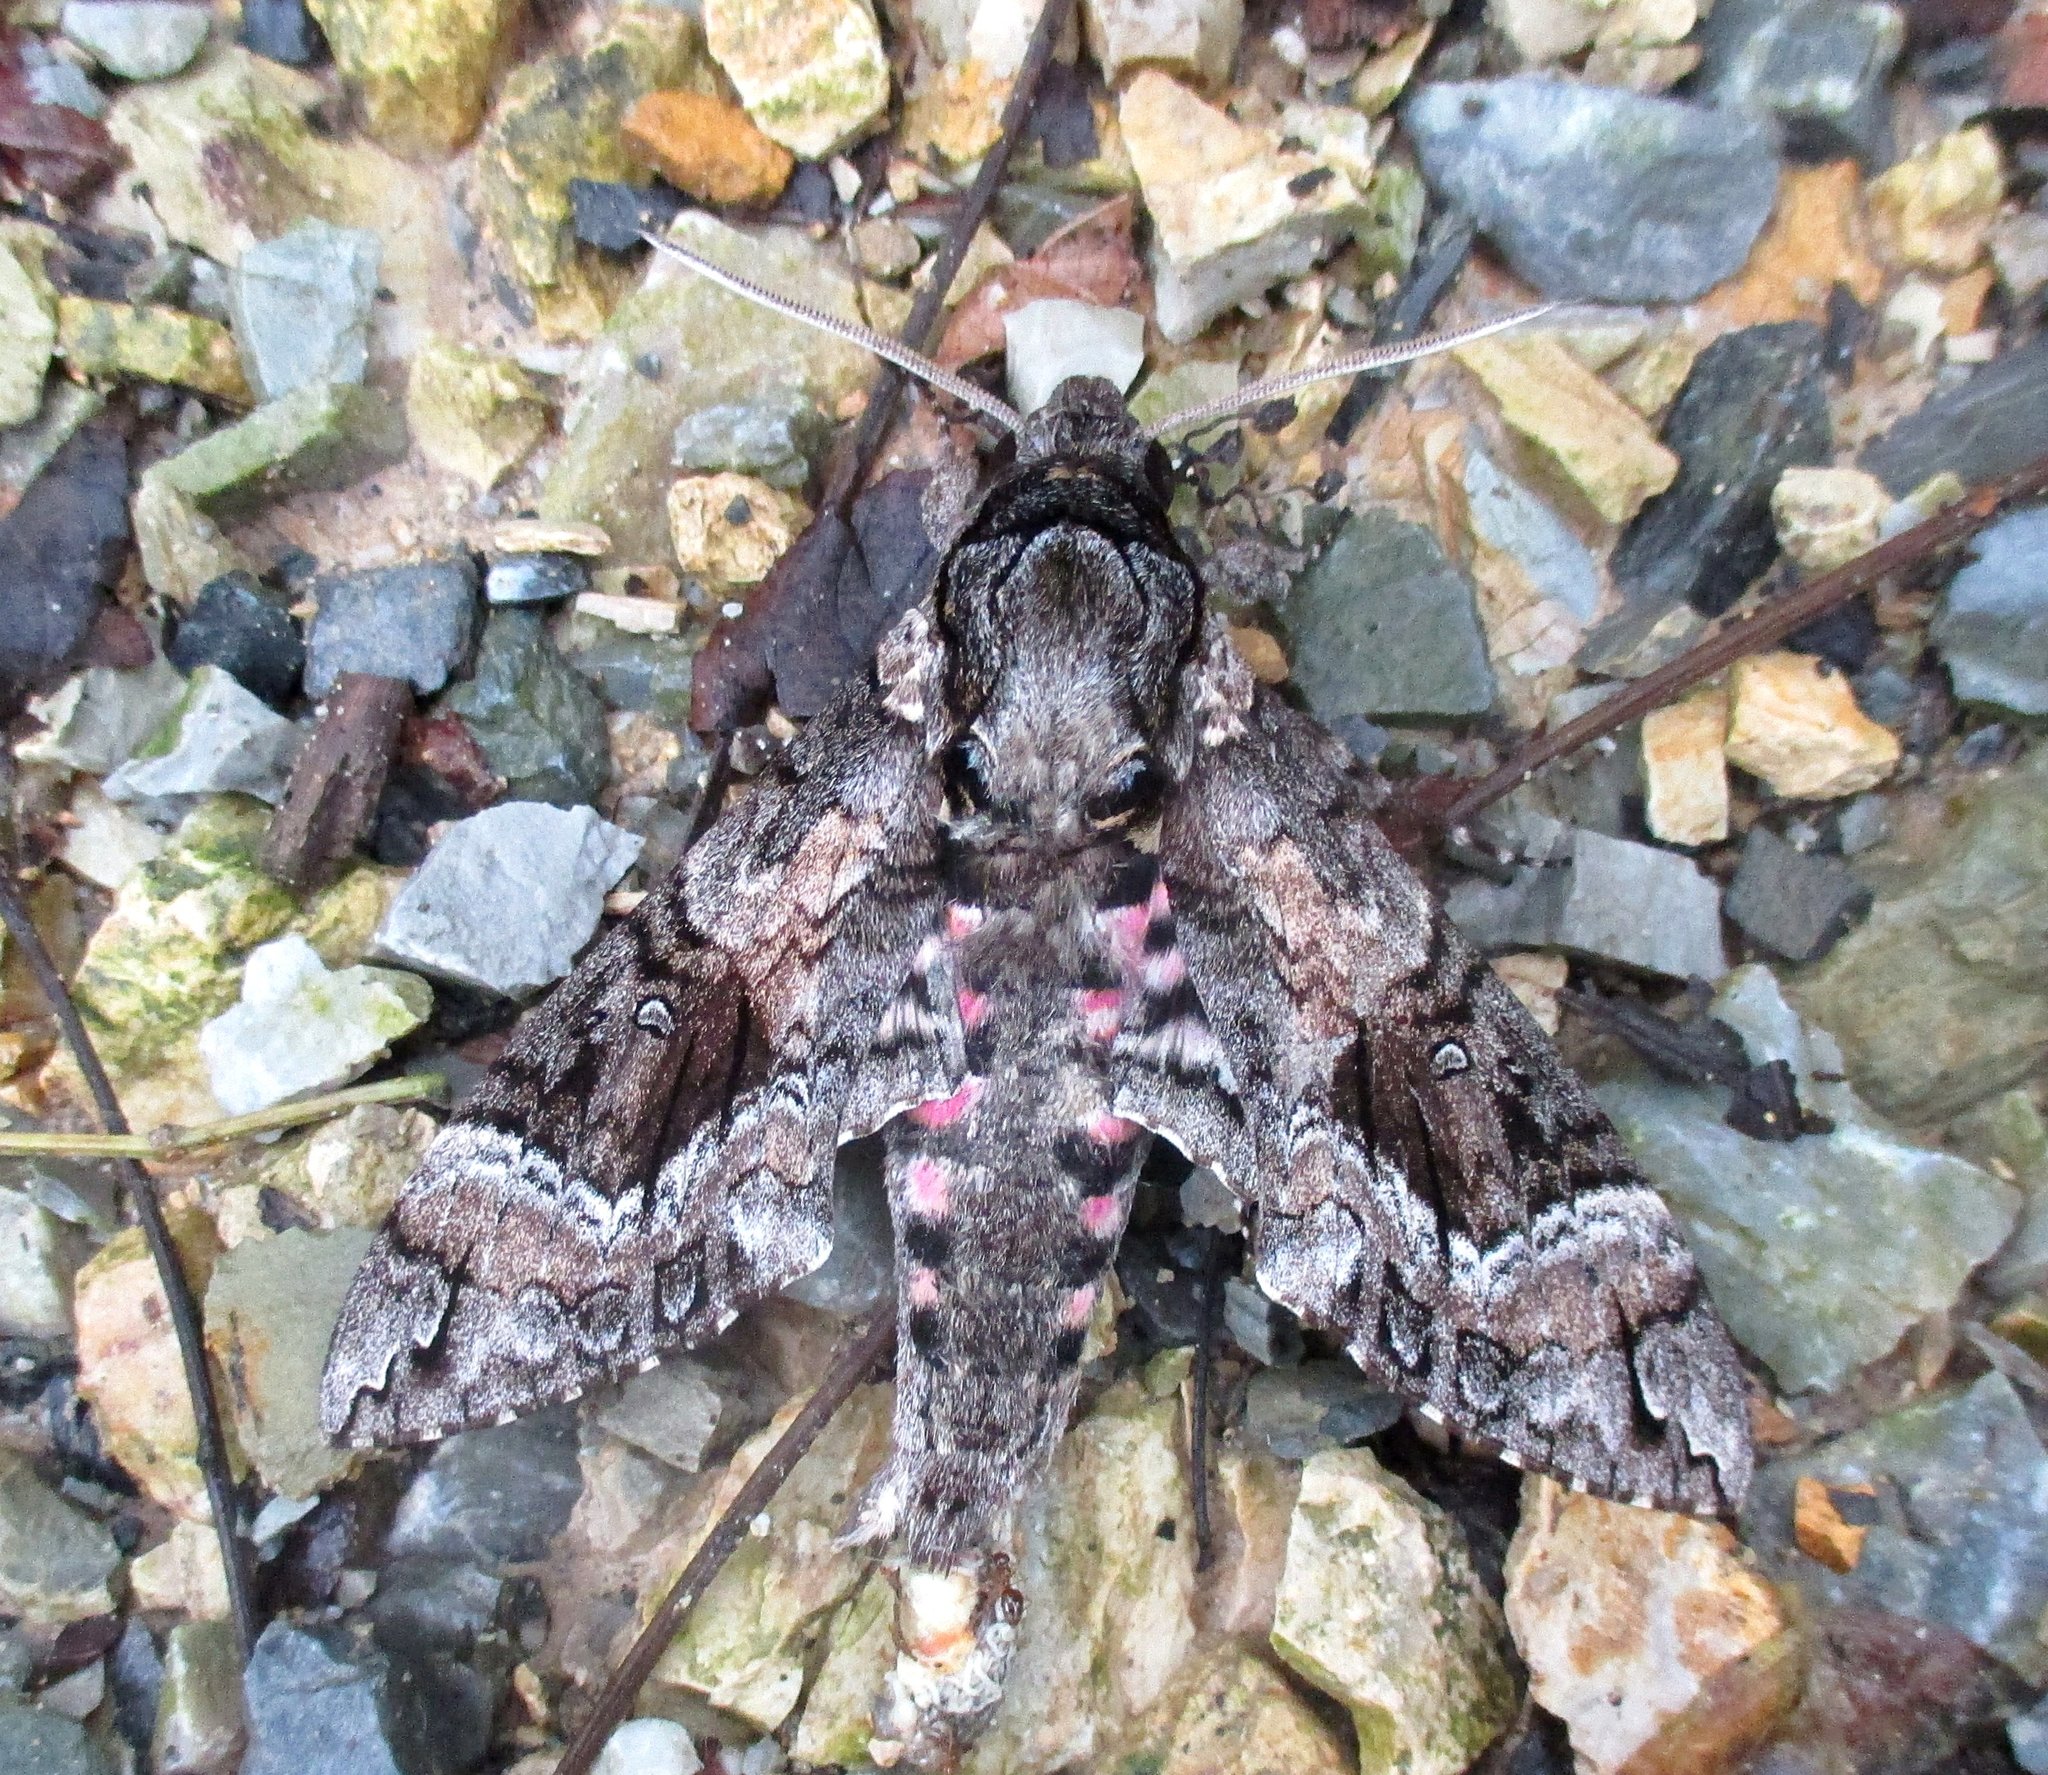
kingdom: Animalia
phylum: Arthropoda
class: Insecta
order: Lepidoptera
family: Sphingidae
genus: Agrius
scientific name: Agrius cingulata
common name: Pink-spotted hawkmoth
